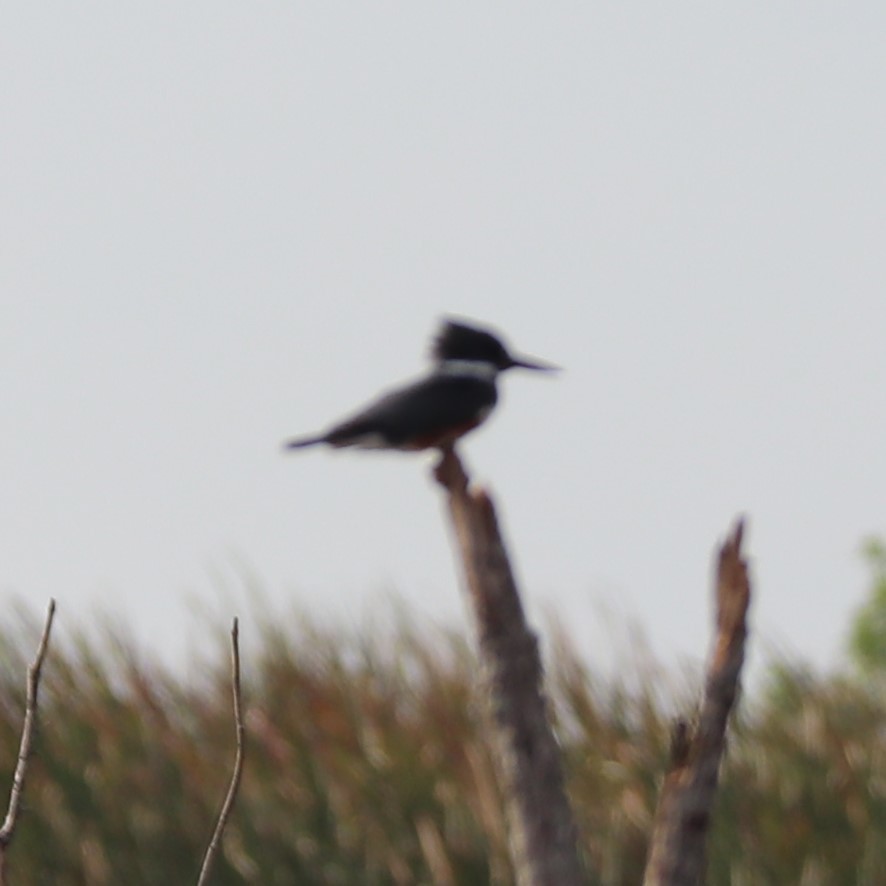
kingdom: Animalia
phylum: Chordata
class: Aves
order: Coraciiformes
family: Alcedinidae
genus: Megaceryle
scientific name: Megaceryle alcyon
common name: Belted kingfisher
